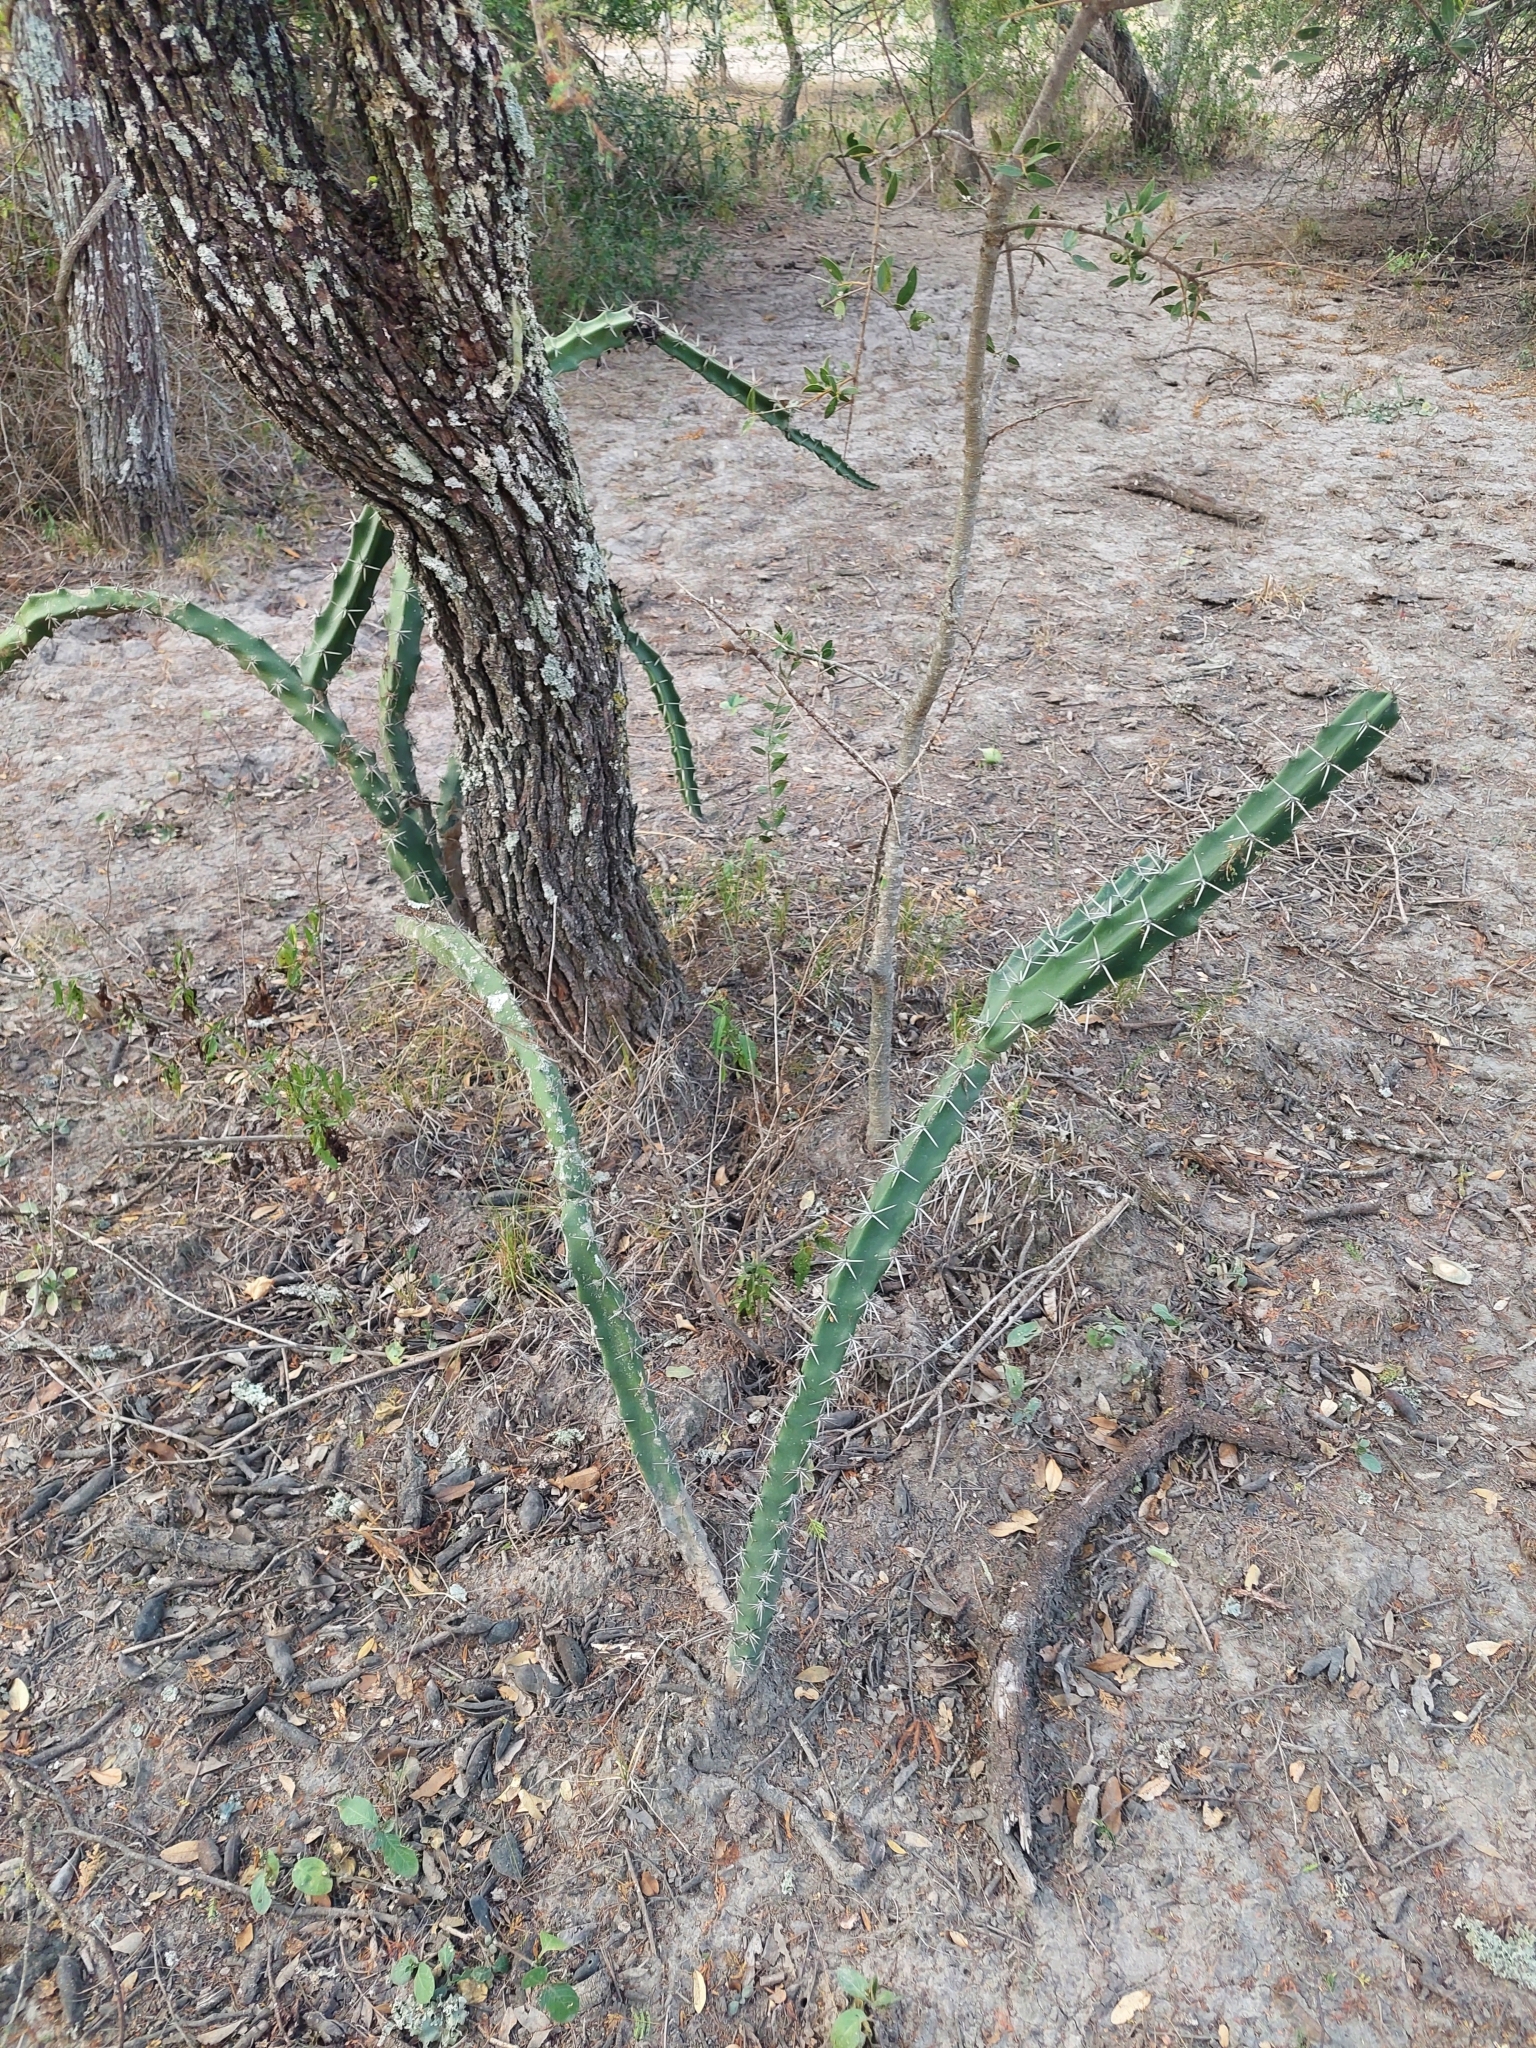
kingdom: Plantae
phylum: Tracheophyta
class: Magnoliopsida
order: Caryophyllales
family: Cactaceae
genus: Harrisia
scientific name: Harrisia bonplandii
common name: Queen of the night cactus
